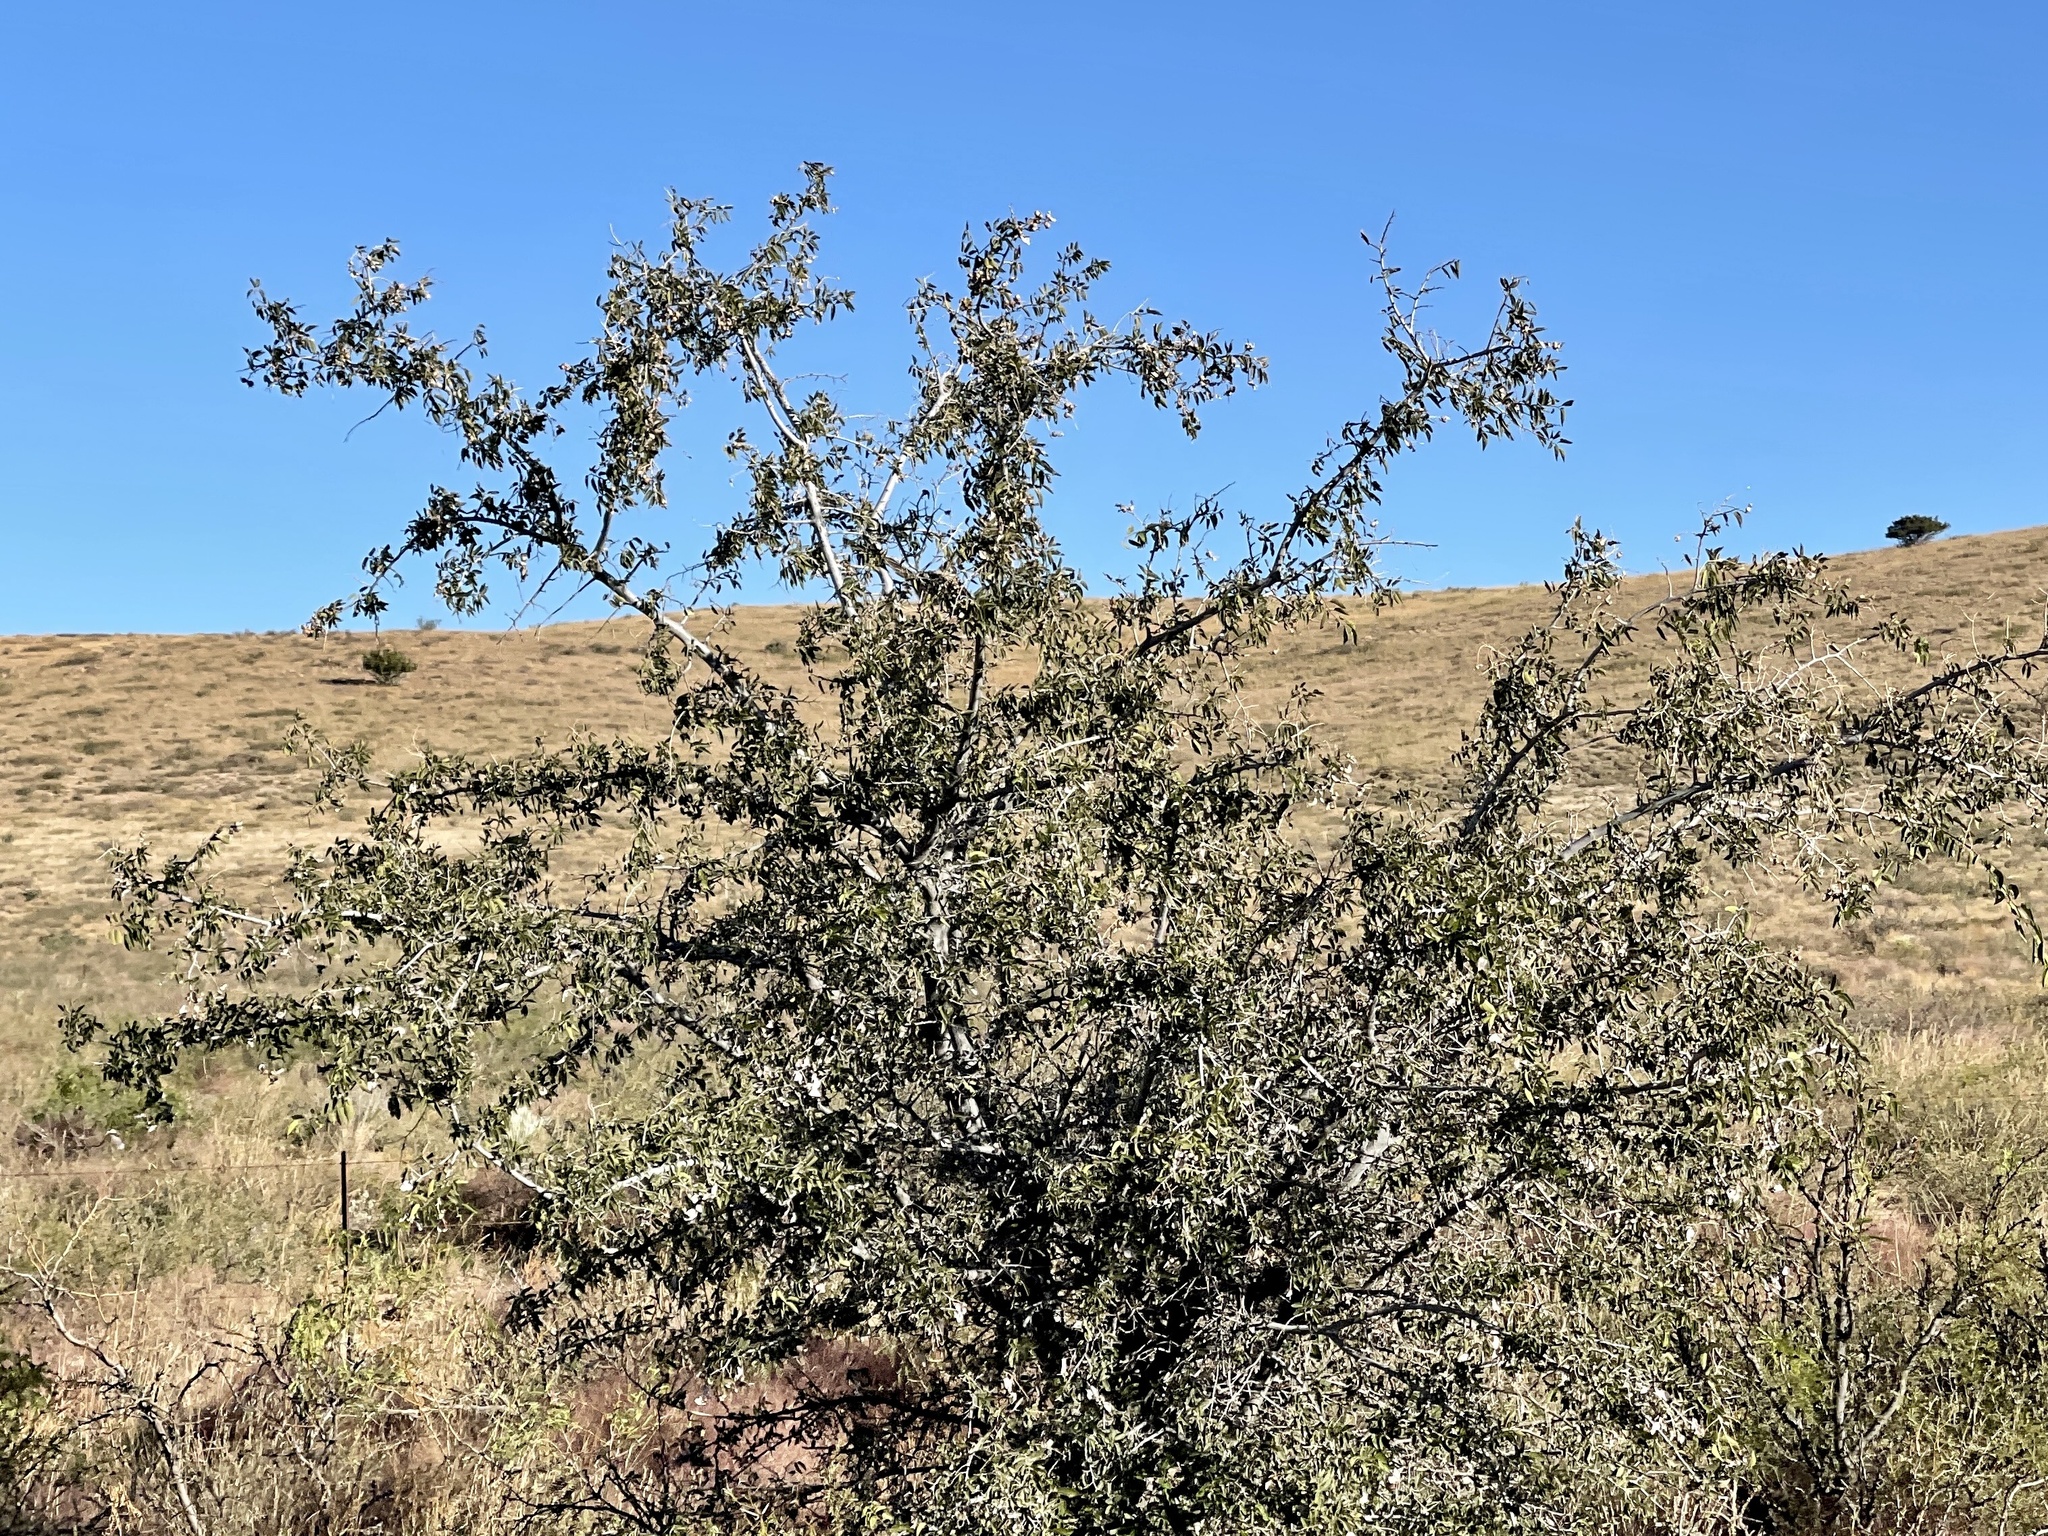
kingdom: Plantae
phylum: Tracheophyta
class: Magnoliopsida
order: Rosales
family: Cannabaceae
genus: Celtis
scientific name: Celtis reticulata
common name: Netleaf hackberry
